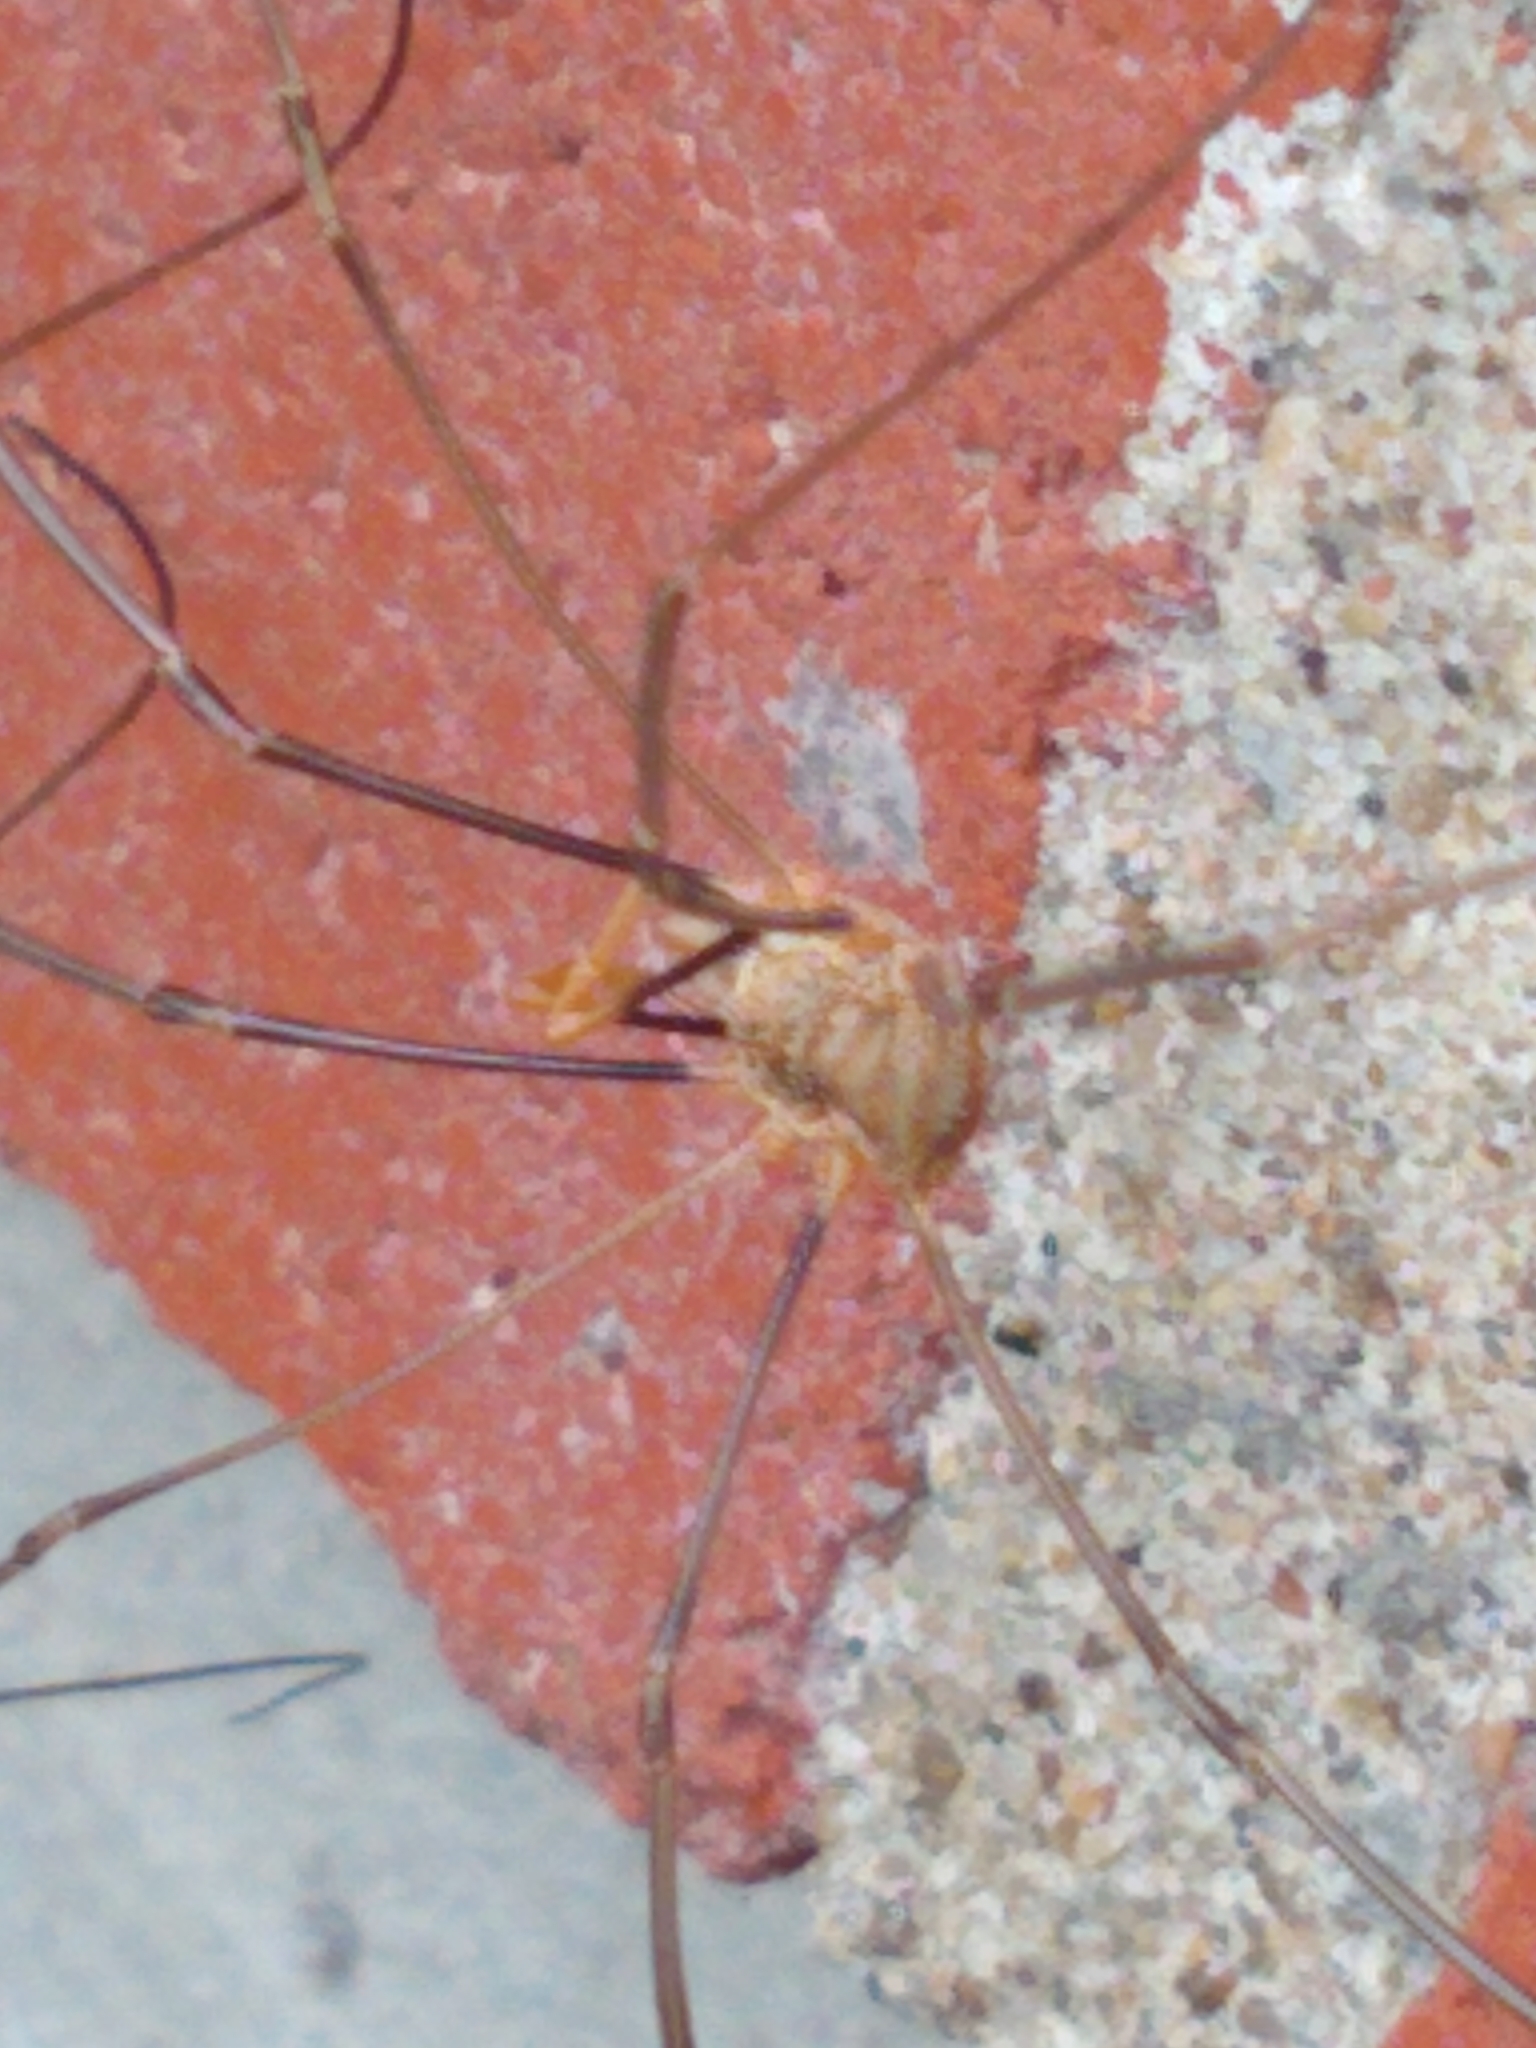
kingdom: Animalia
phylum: Arthropoda
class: Arachnida
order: Opiliones
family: Phalangiidae
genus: Phalangium
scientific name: Phalangium opilio
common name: Daddy longleg
